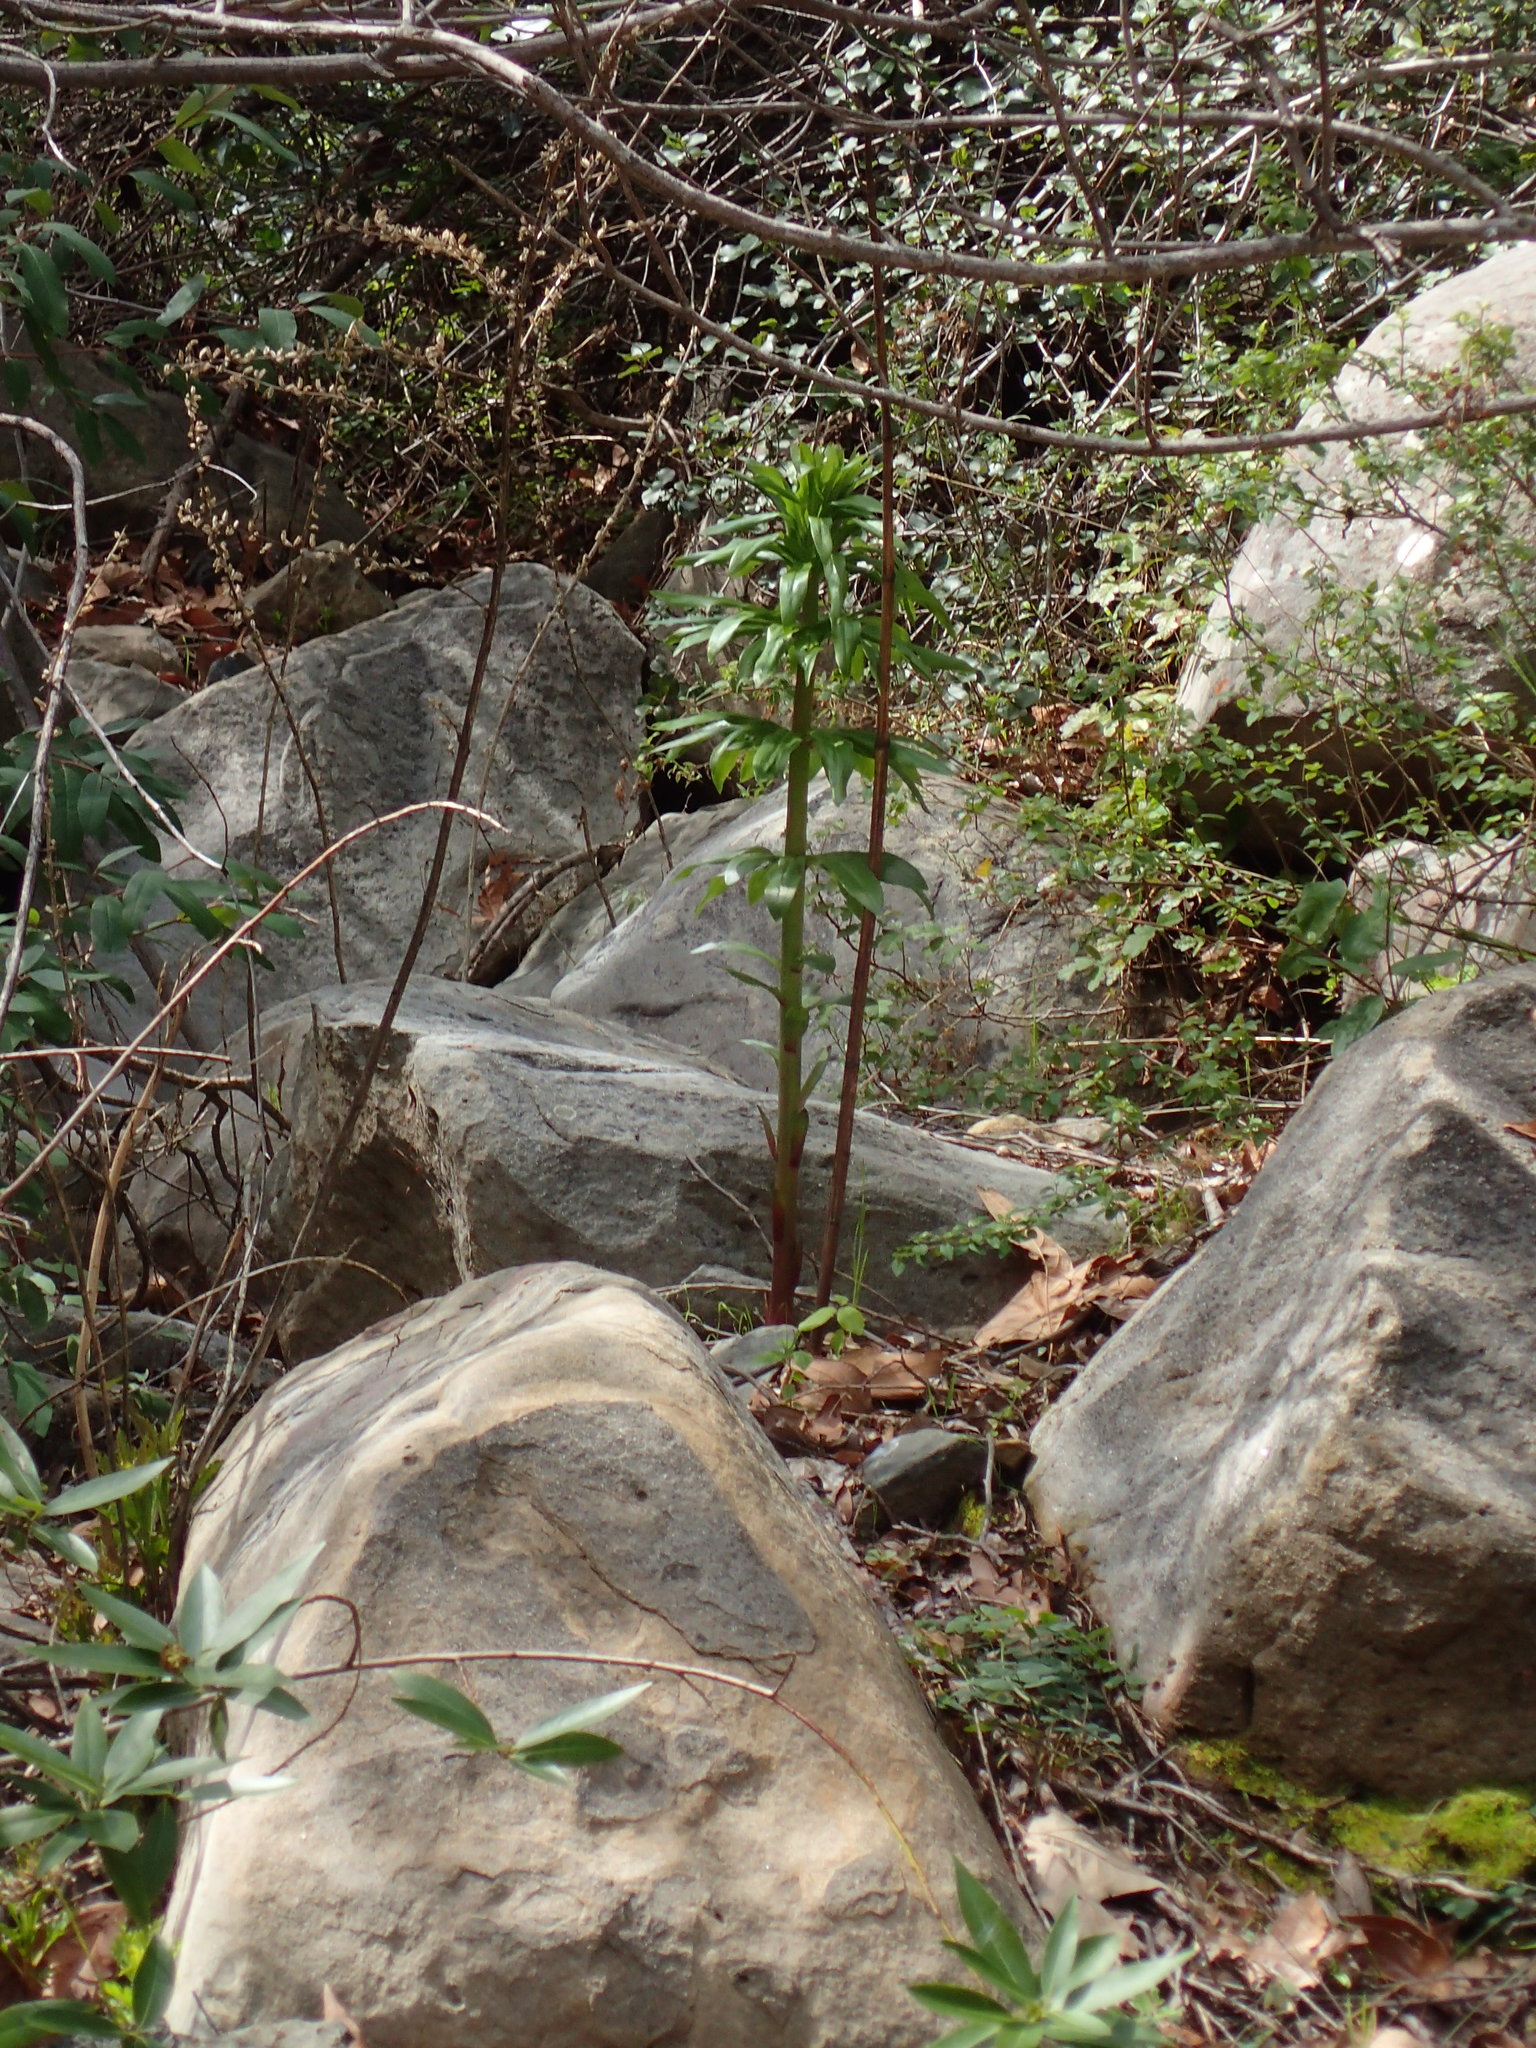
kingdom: Plantae
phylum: Tracheophyta
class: Liliopsida
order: Liliales
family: Liliaceae
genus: Lilium
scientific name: Lilium humboldtii
